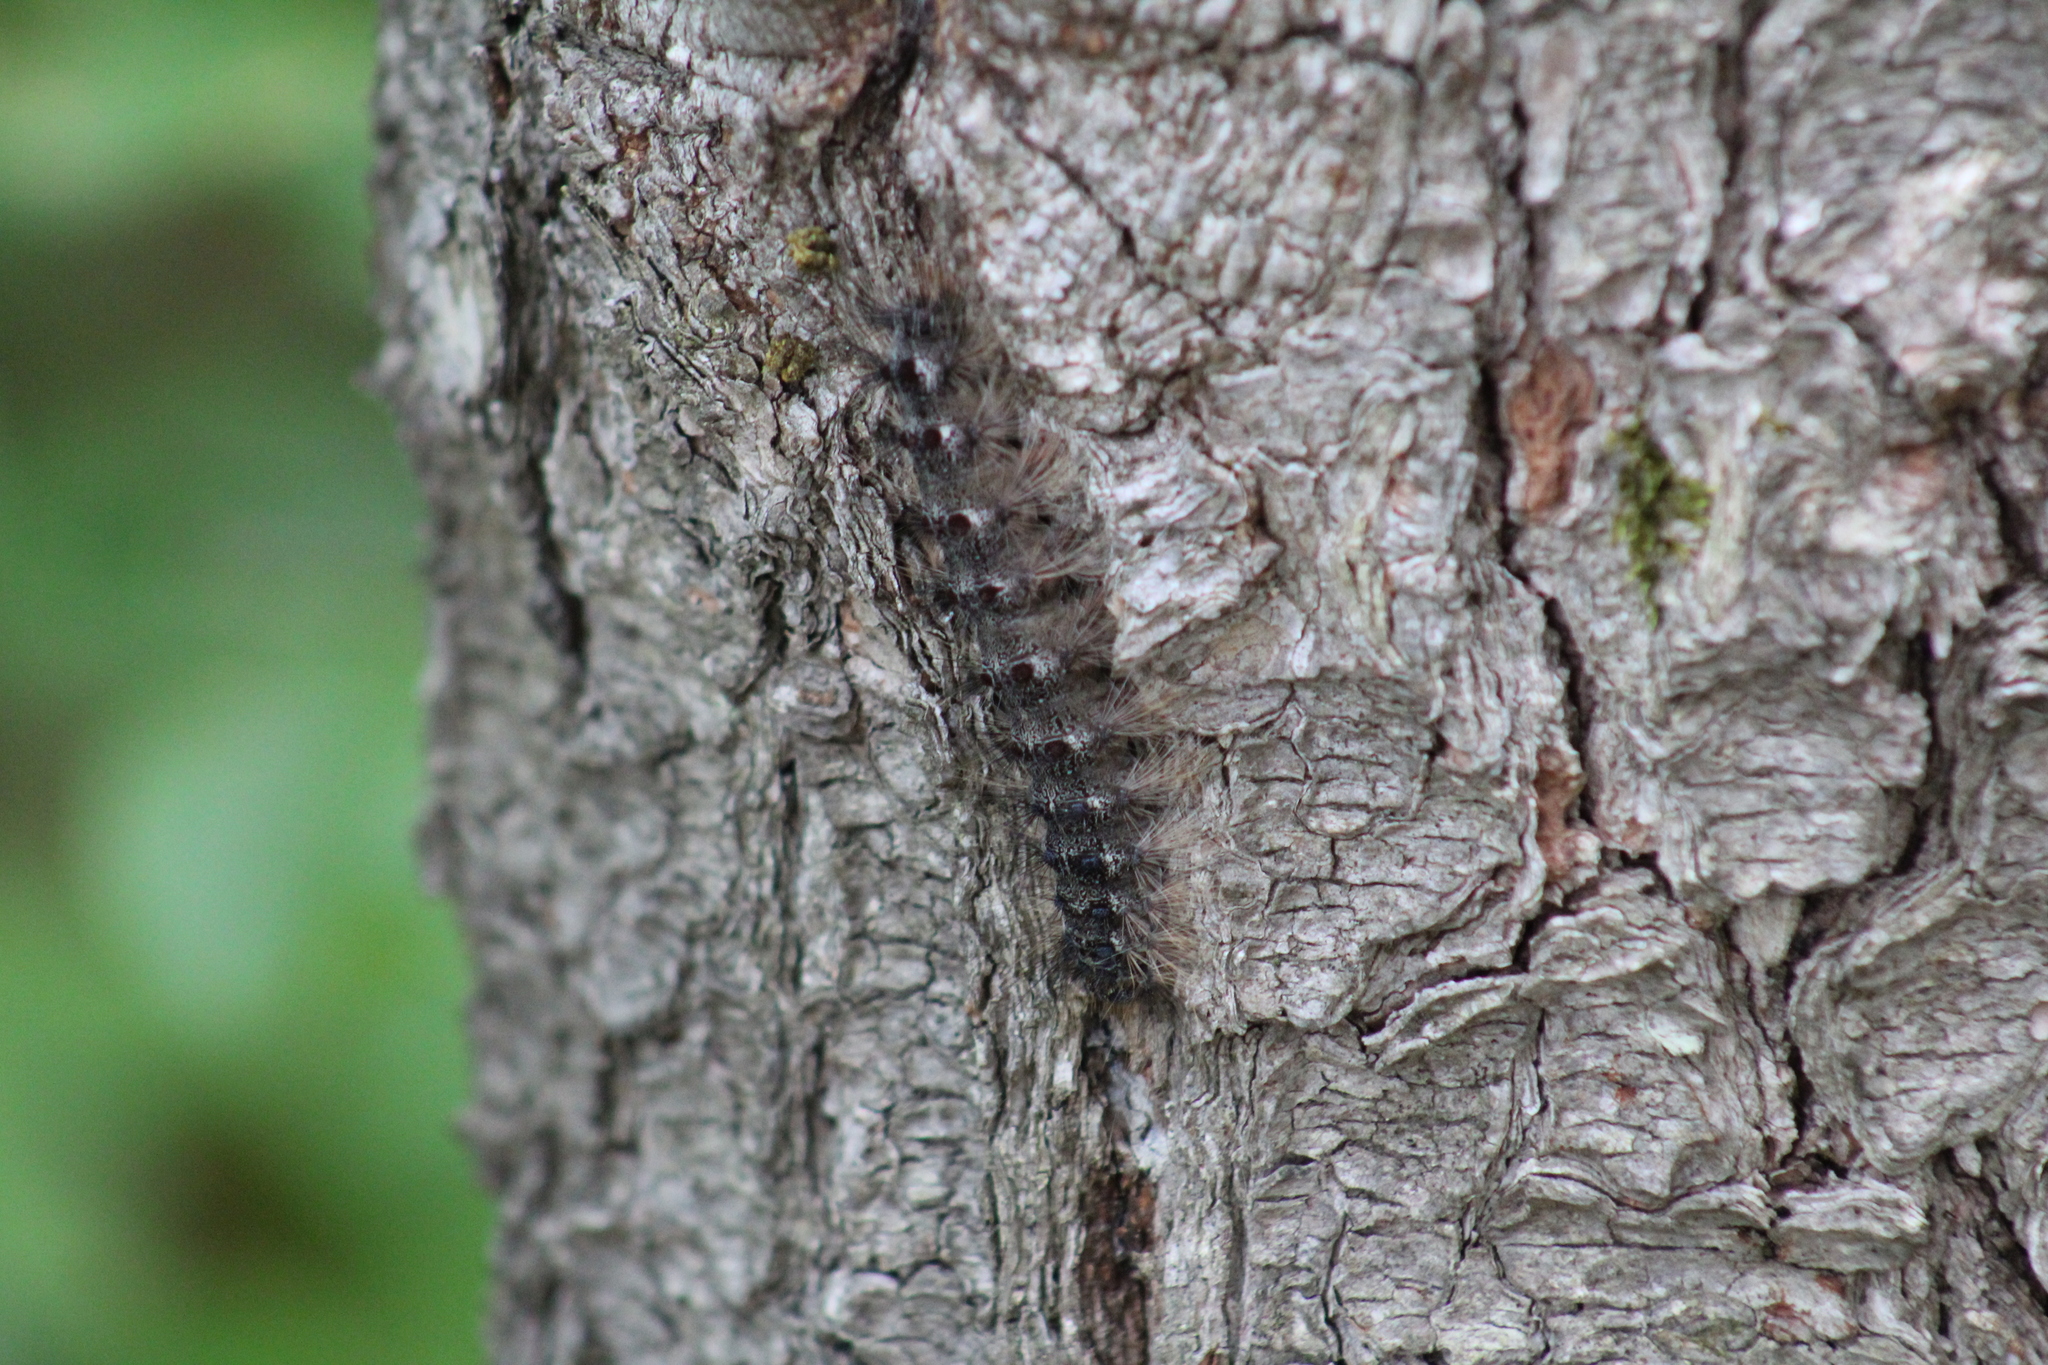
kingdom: Animalia
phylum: Arthropoda
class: Insecta
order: Lepidoptera
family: Erebidae
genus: Lymantria
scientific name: Lymantria dispar
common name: Gypsy moth
